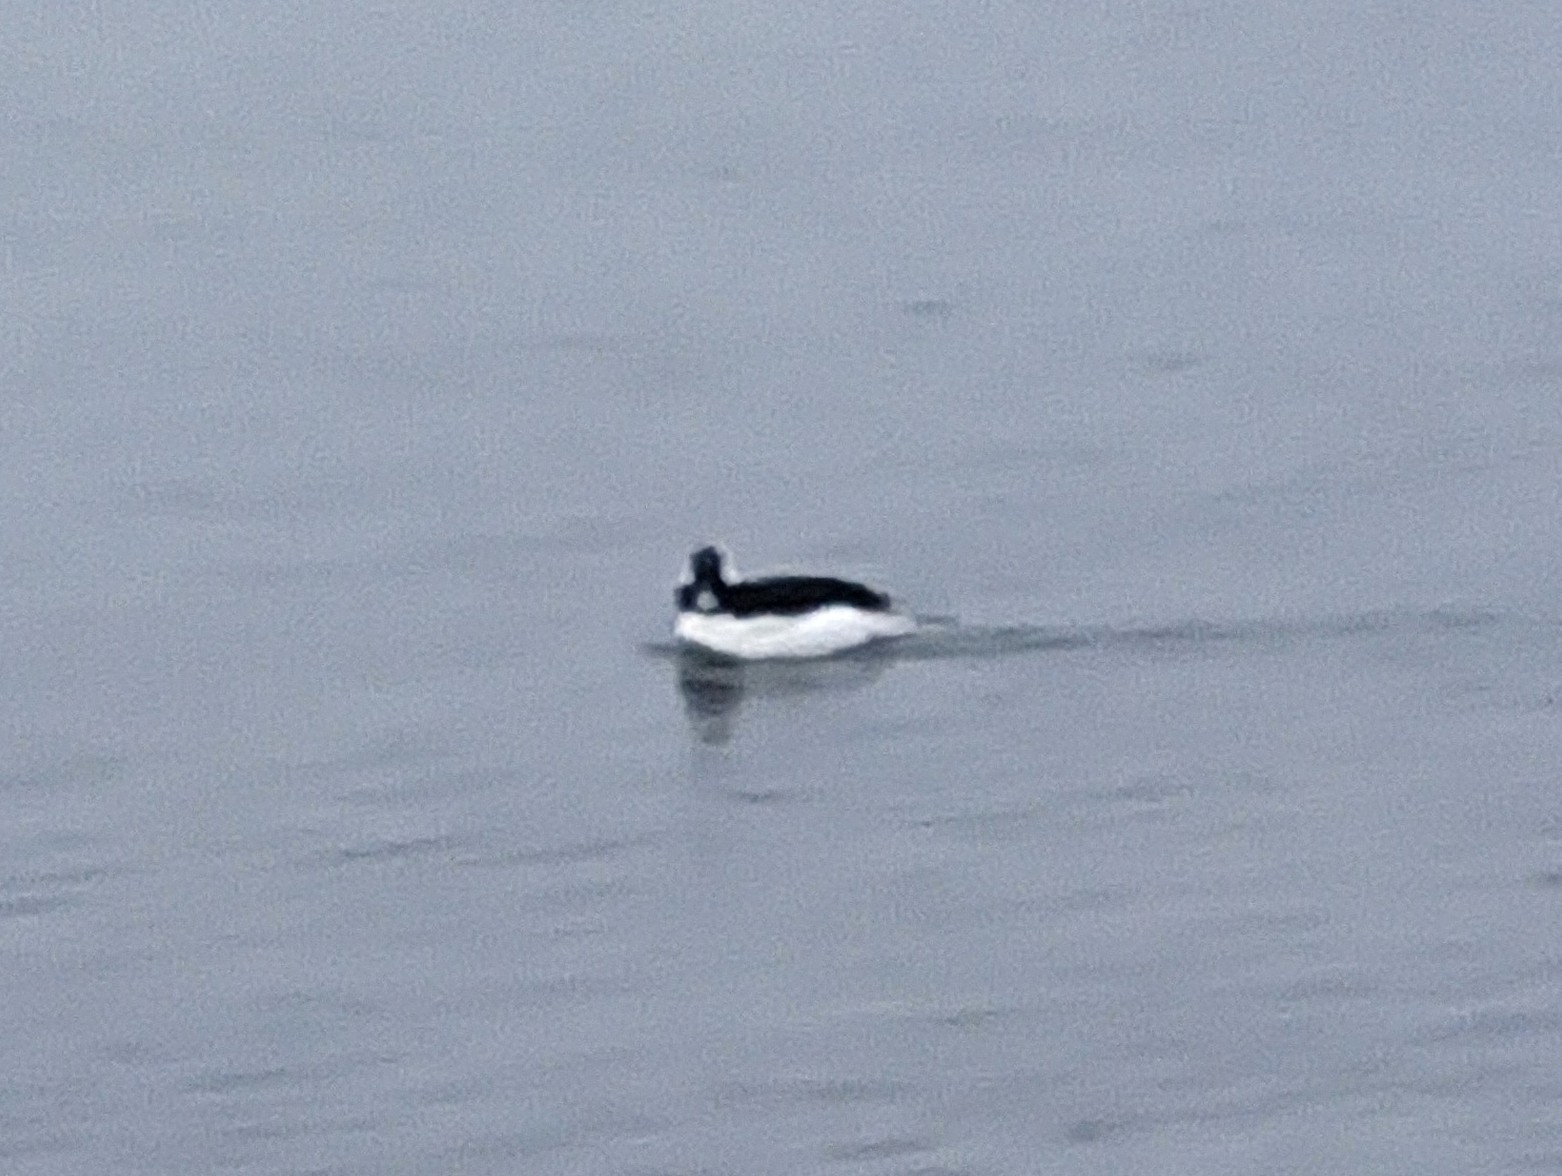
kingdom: Animalia
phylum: Chordata
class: Aves
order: Anseriformes
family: Anatidae
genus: Bucephala
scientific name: Bucephala albeola
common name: Bufflehead
